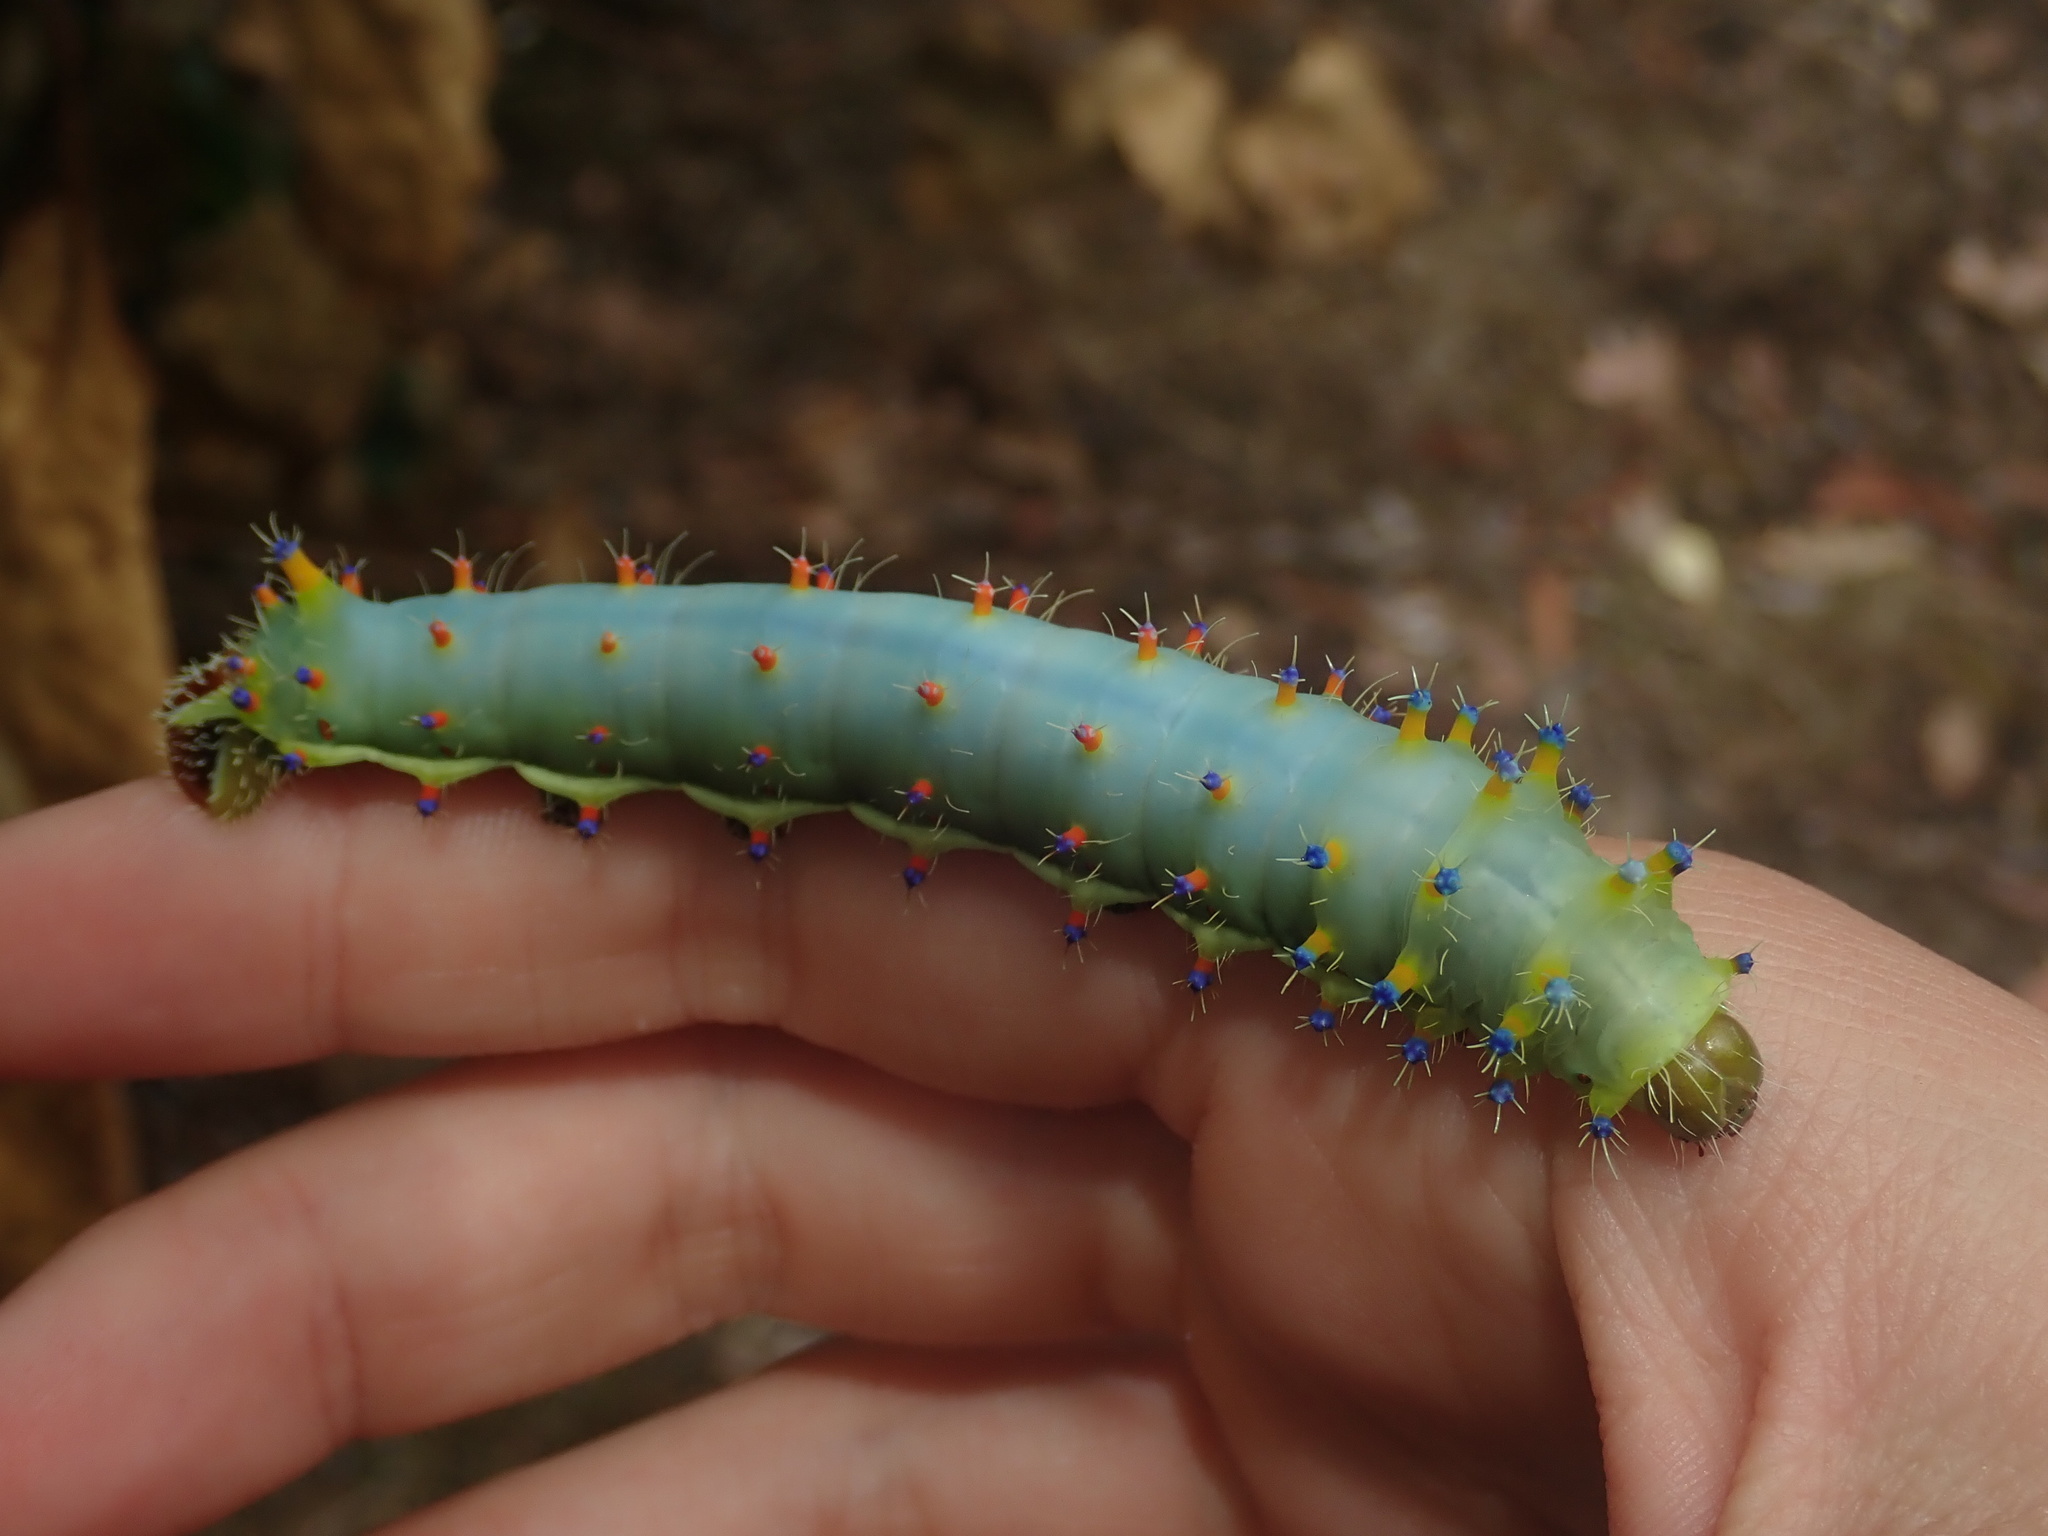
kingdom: Animalia
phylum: Arthropoda
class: Insecta
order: Lepidoptera
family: Saturniidae
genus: Opodiphthera
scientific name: Opodiphthera
